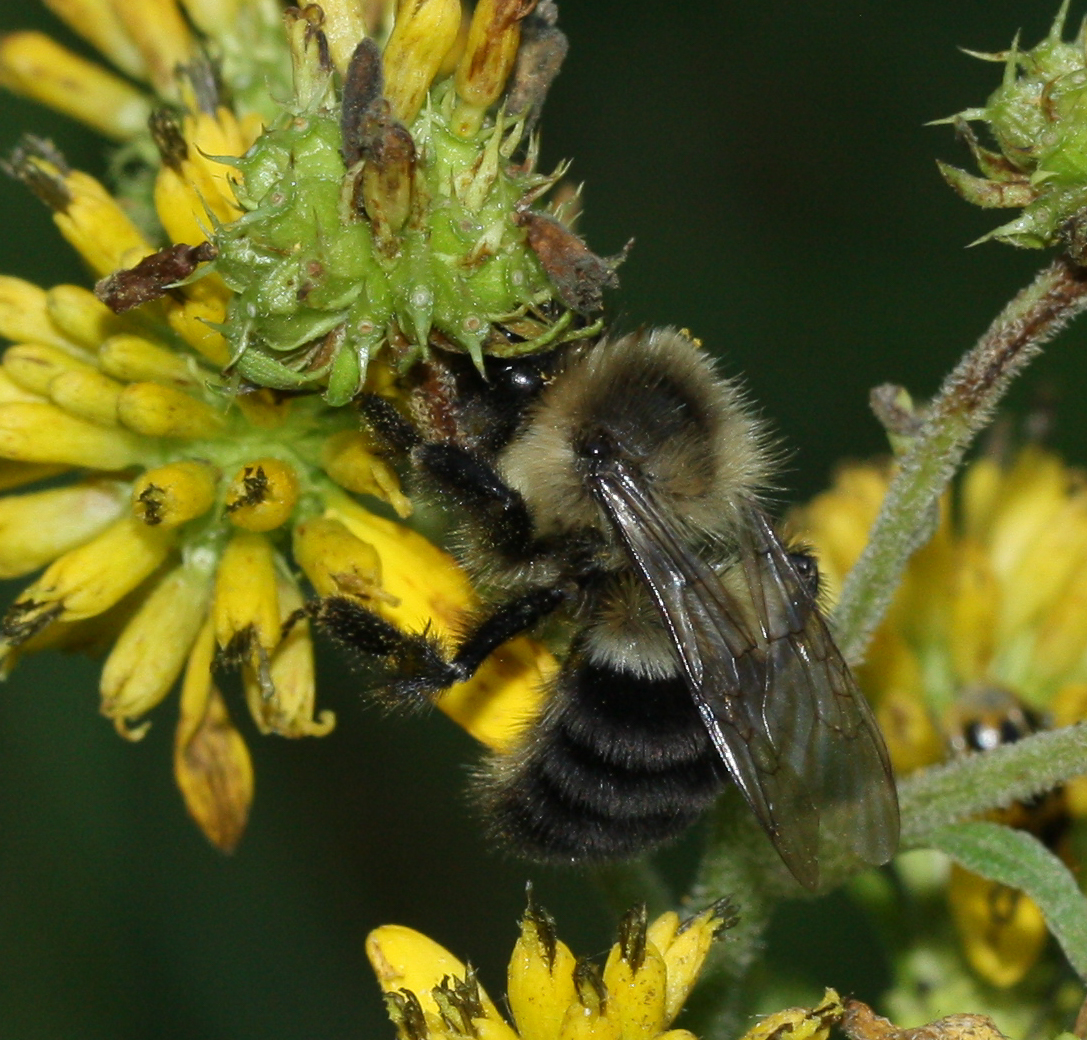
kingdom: Animalia
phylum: Arthropoda
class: Insecta
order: Hymenoptera
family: Apidae
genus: Bombus
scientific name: Bombus impatiens
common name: Common eastern bumble bee
